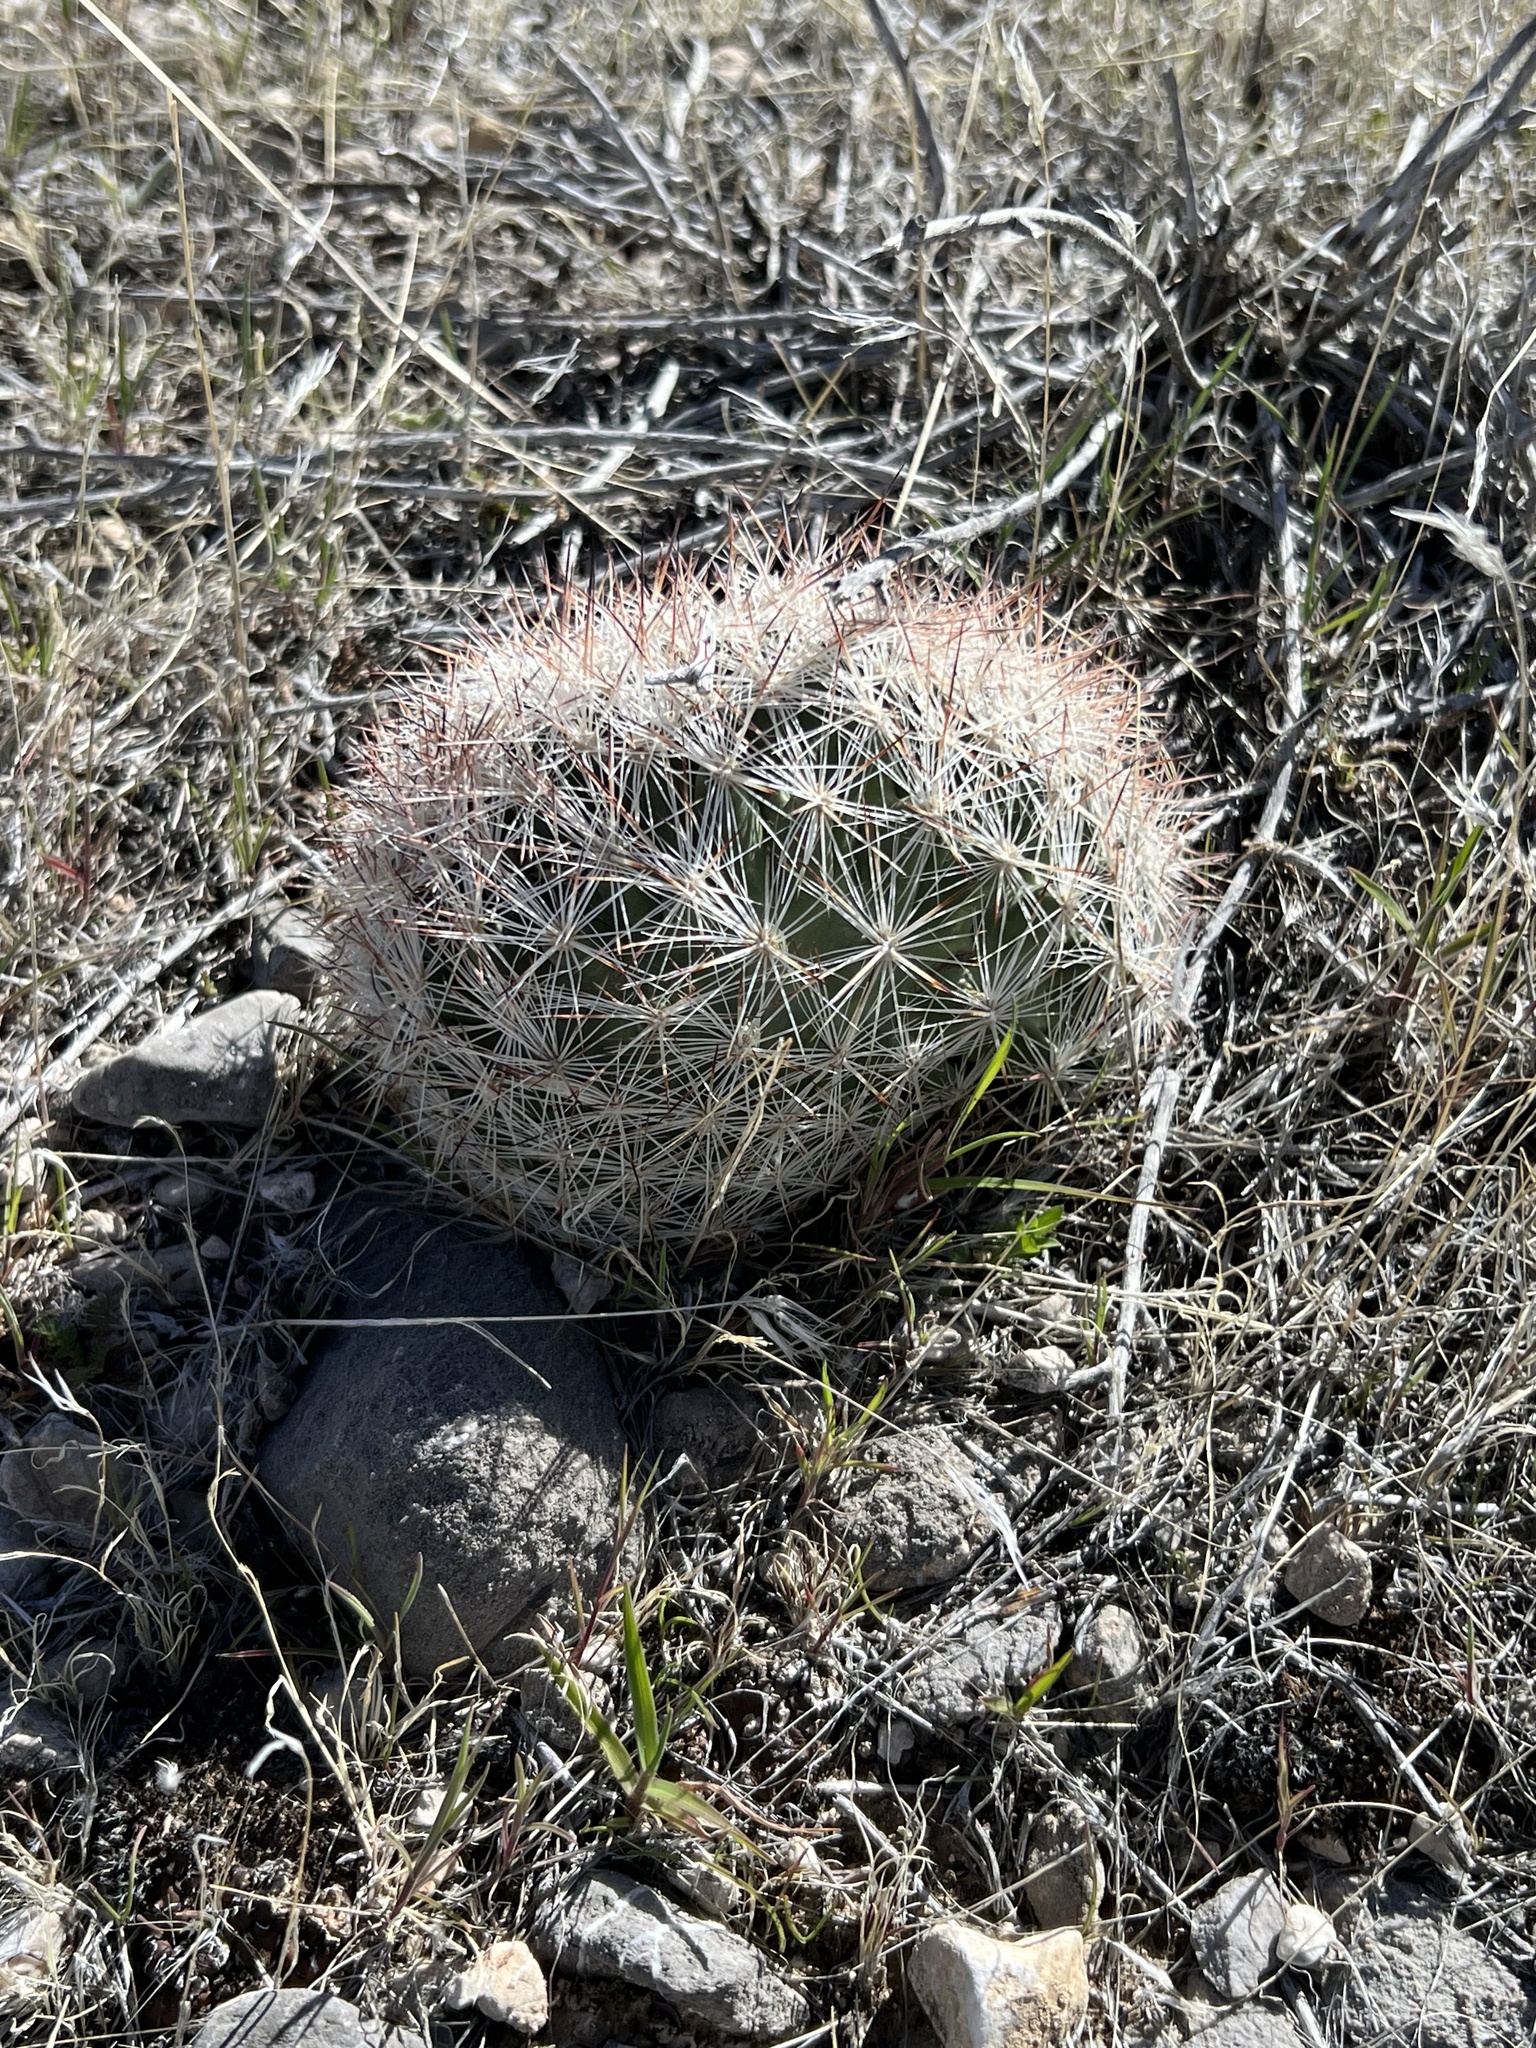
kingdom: Plantae
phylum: Tracheophyta
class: Magnoliopsida
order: Caryophyllales
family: Cactaceae
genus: Pelecyphora
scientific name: Pelecyphora dasyacantha
